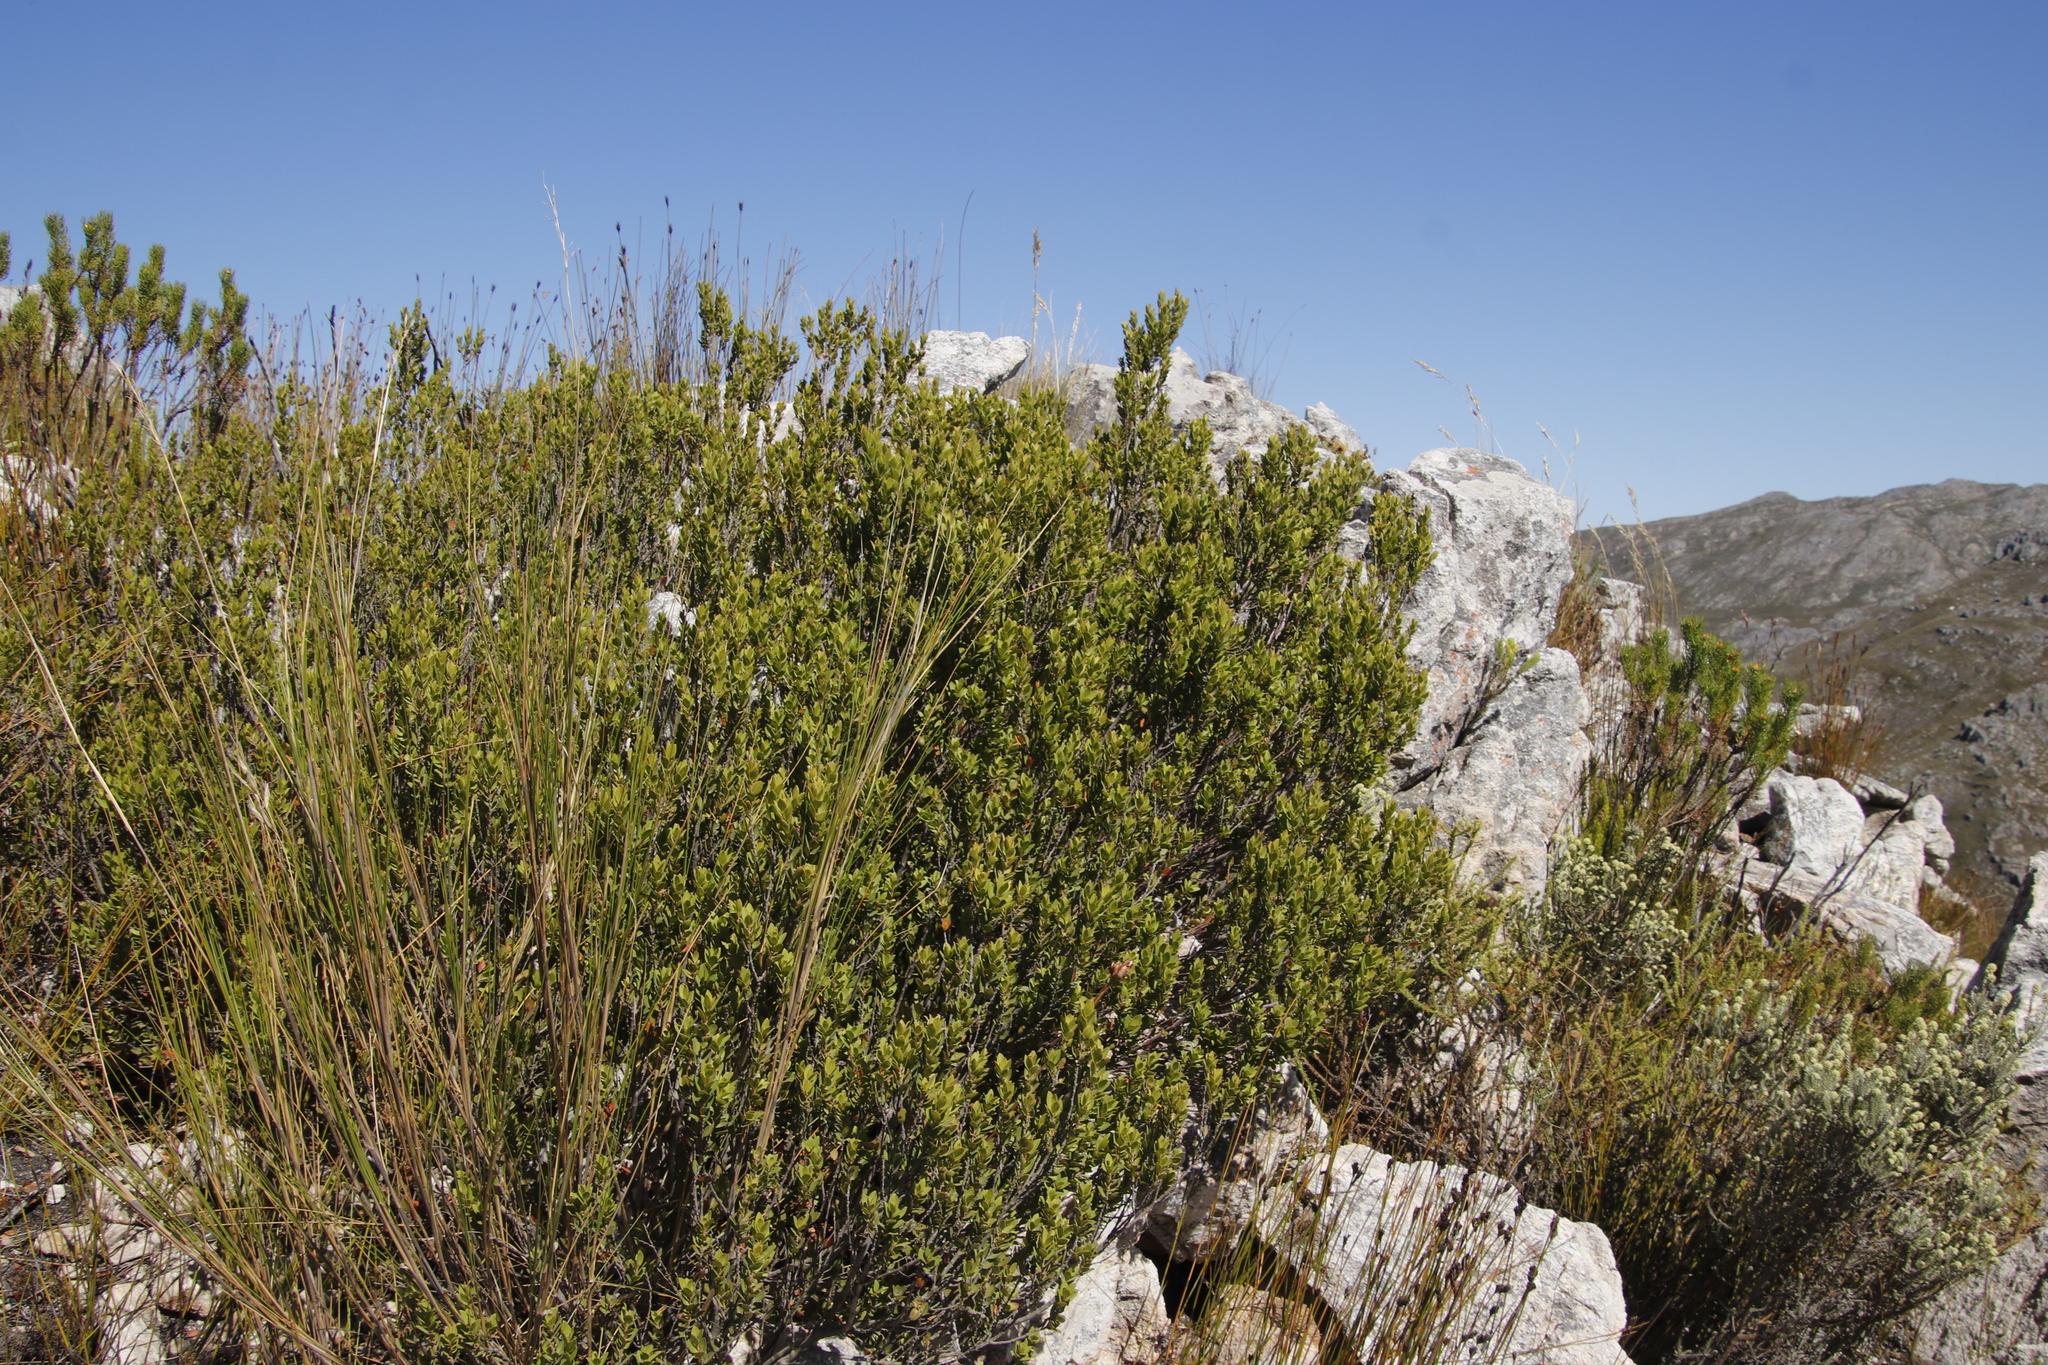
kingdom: Plantae
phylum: Tracheophyta
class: Magnoliopsida
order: Ericales
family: Ebenaceae
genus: Diospyros
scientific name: Diospyros glabra
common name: Fynbos star apple
